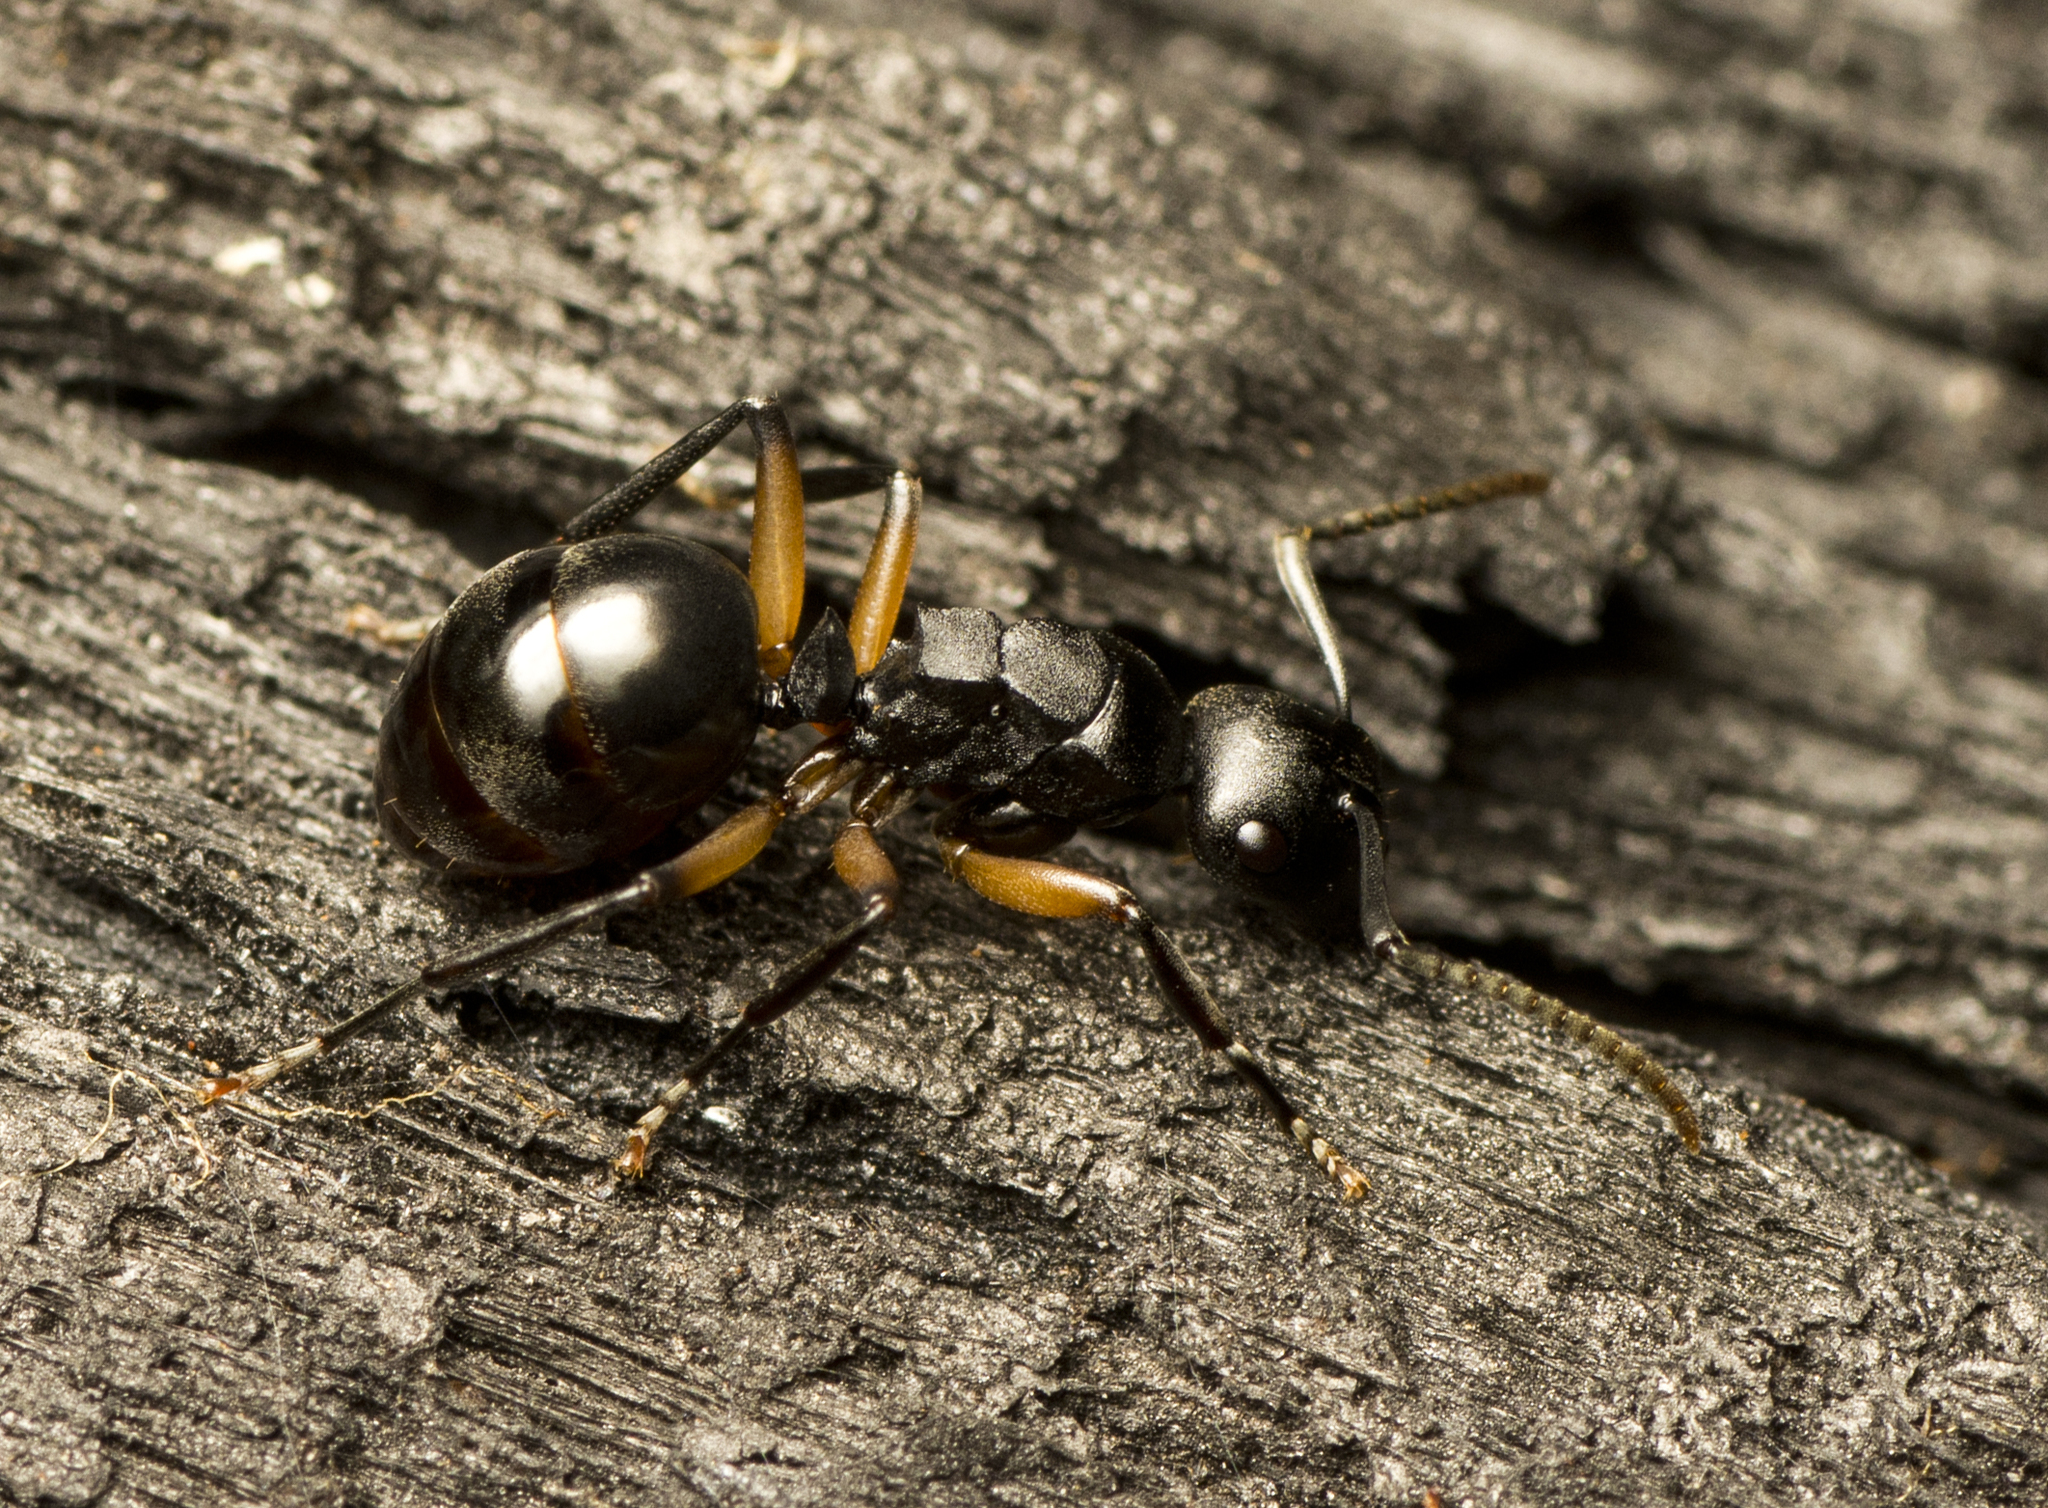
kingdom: Animalia
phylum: Arthropoda
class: Insecta
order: Hymenoptera
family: Formicidae
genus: Polyrhachis
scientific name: Polyrhachis femorata
